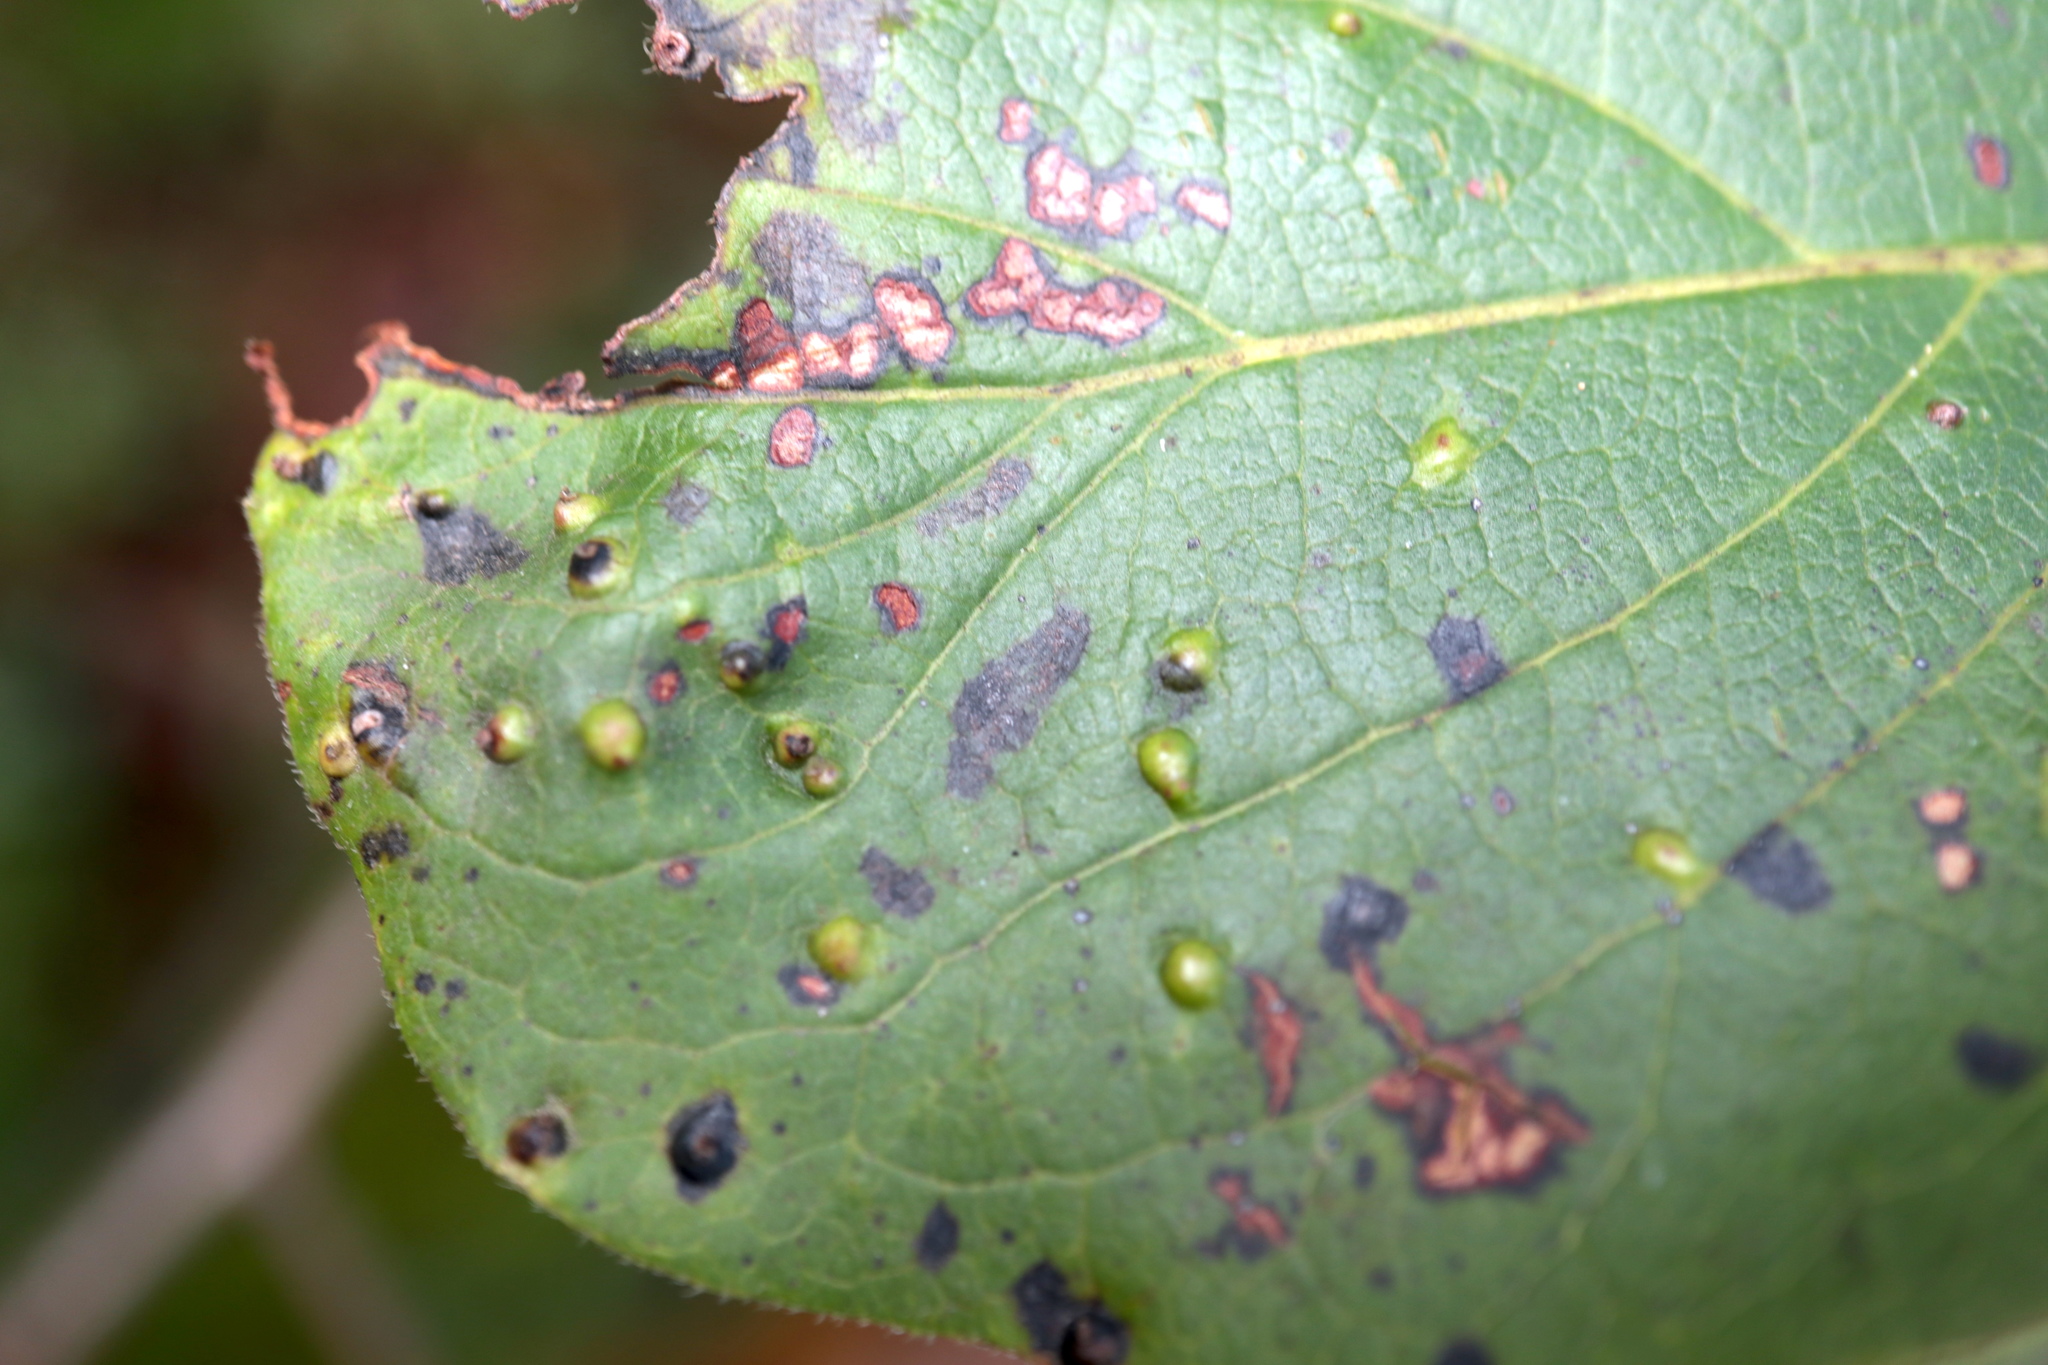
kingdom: Animalia
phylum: Arthropoda
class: Arachnida
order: Trombidiformes
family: Eriophyidae
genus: Aceria
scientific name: Aceria
